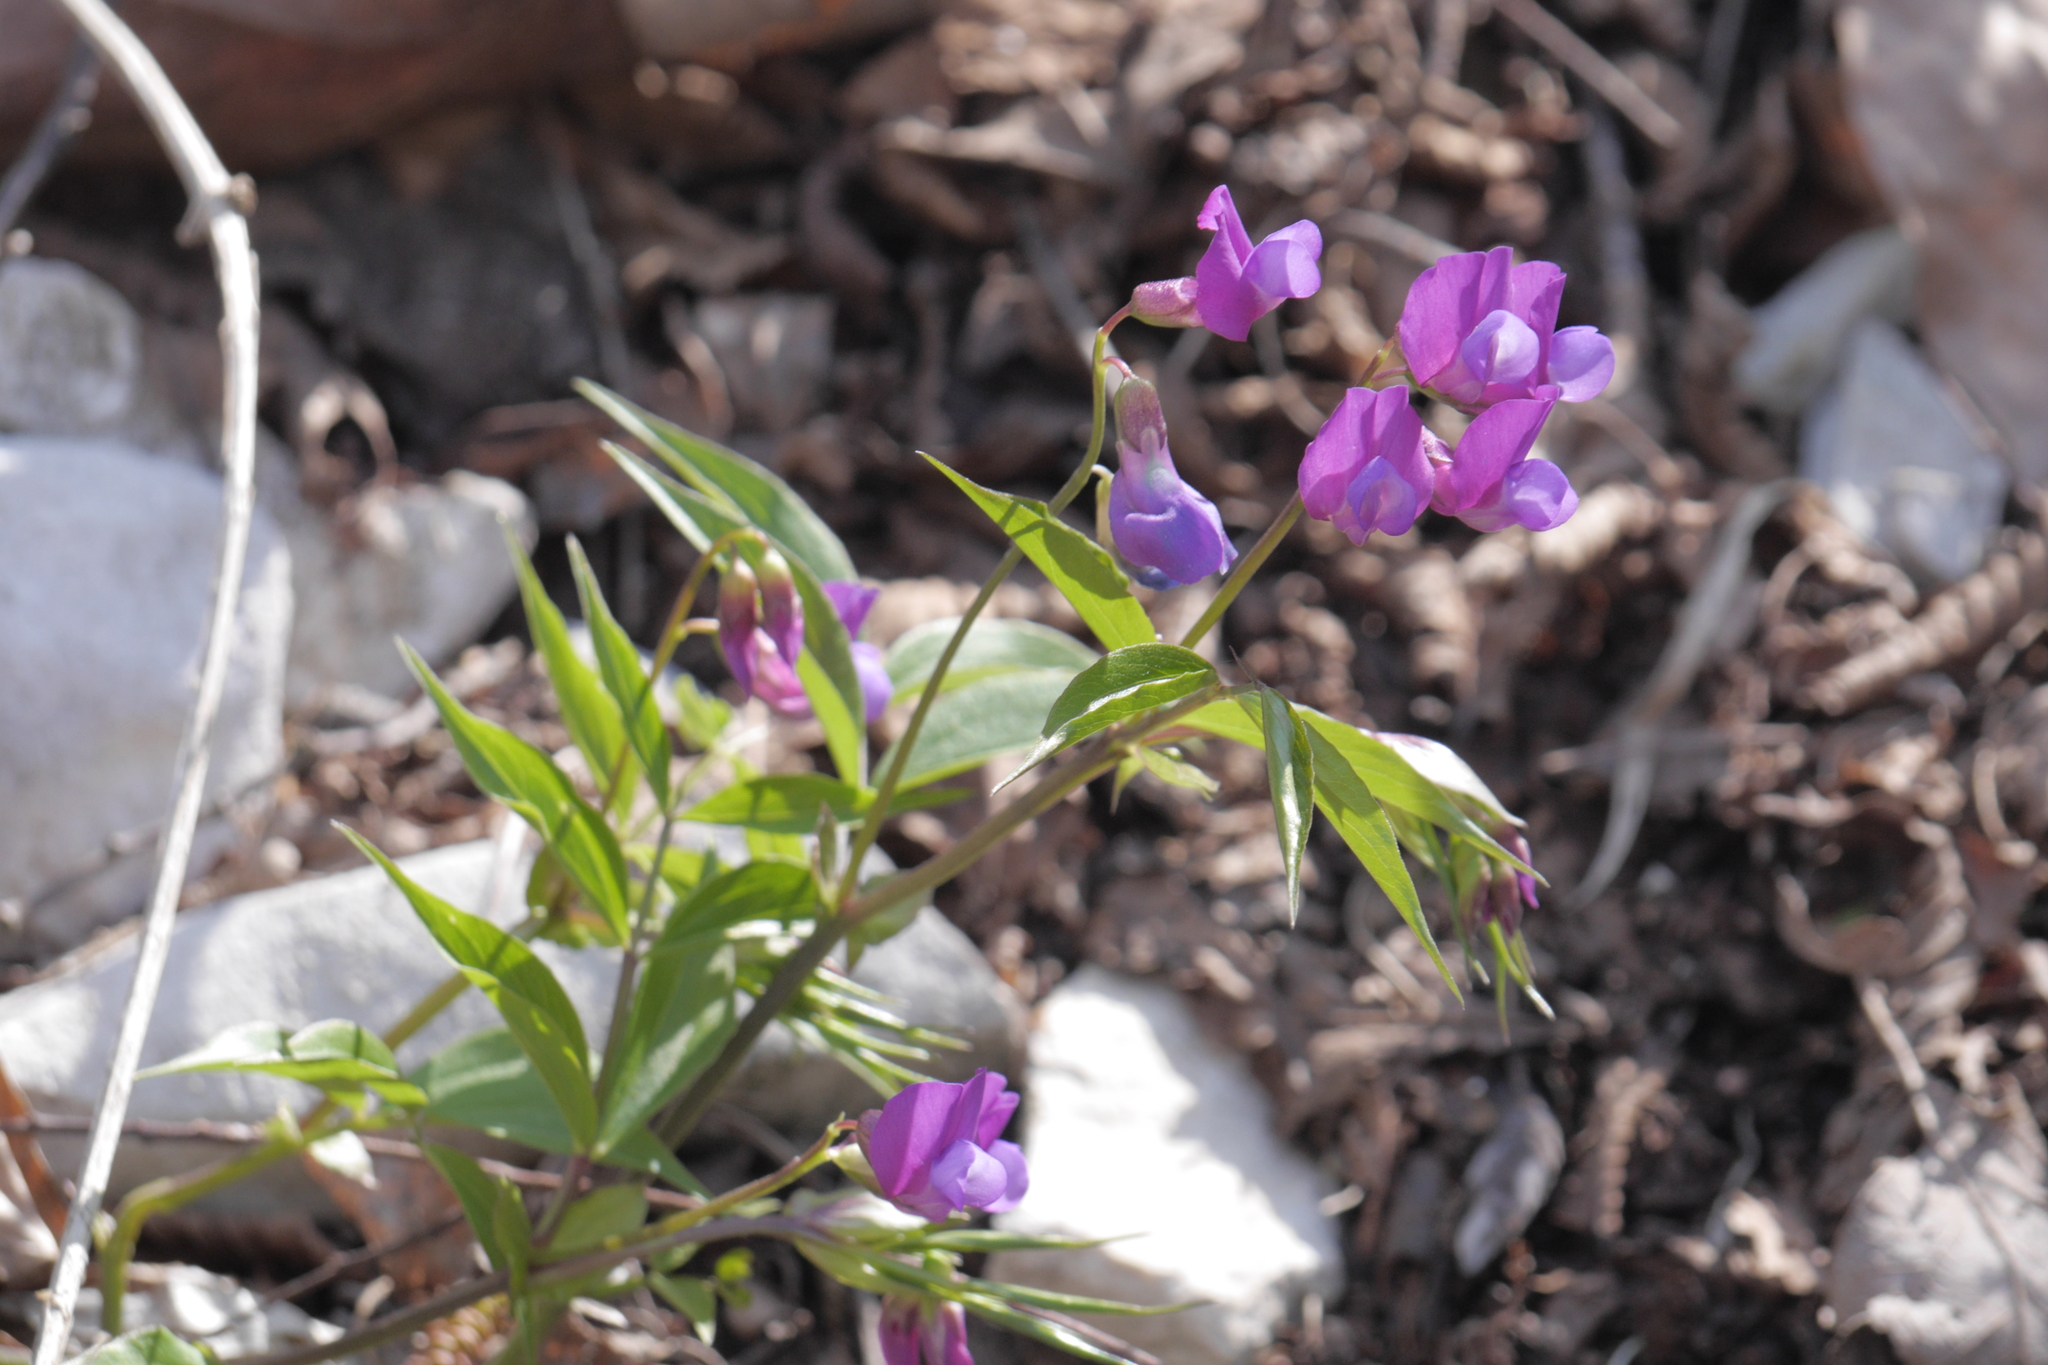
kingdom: Plantae
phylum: Tracheophyta
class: Magnoliopsida
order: Fabales
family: Fabaceae
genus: Lathyrus
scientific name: Lathyrus vernus
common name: Spring pea
